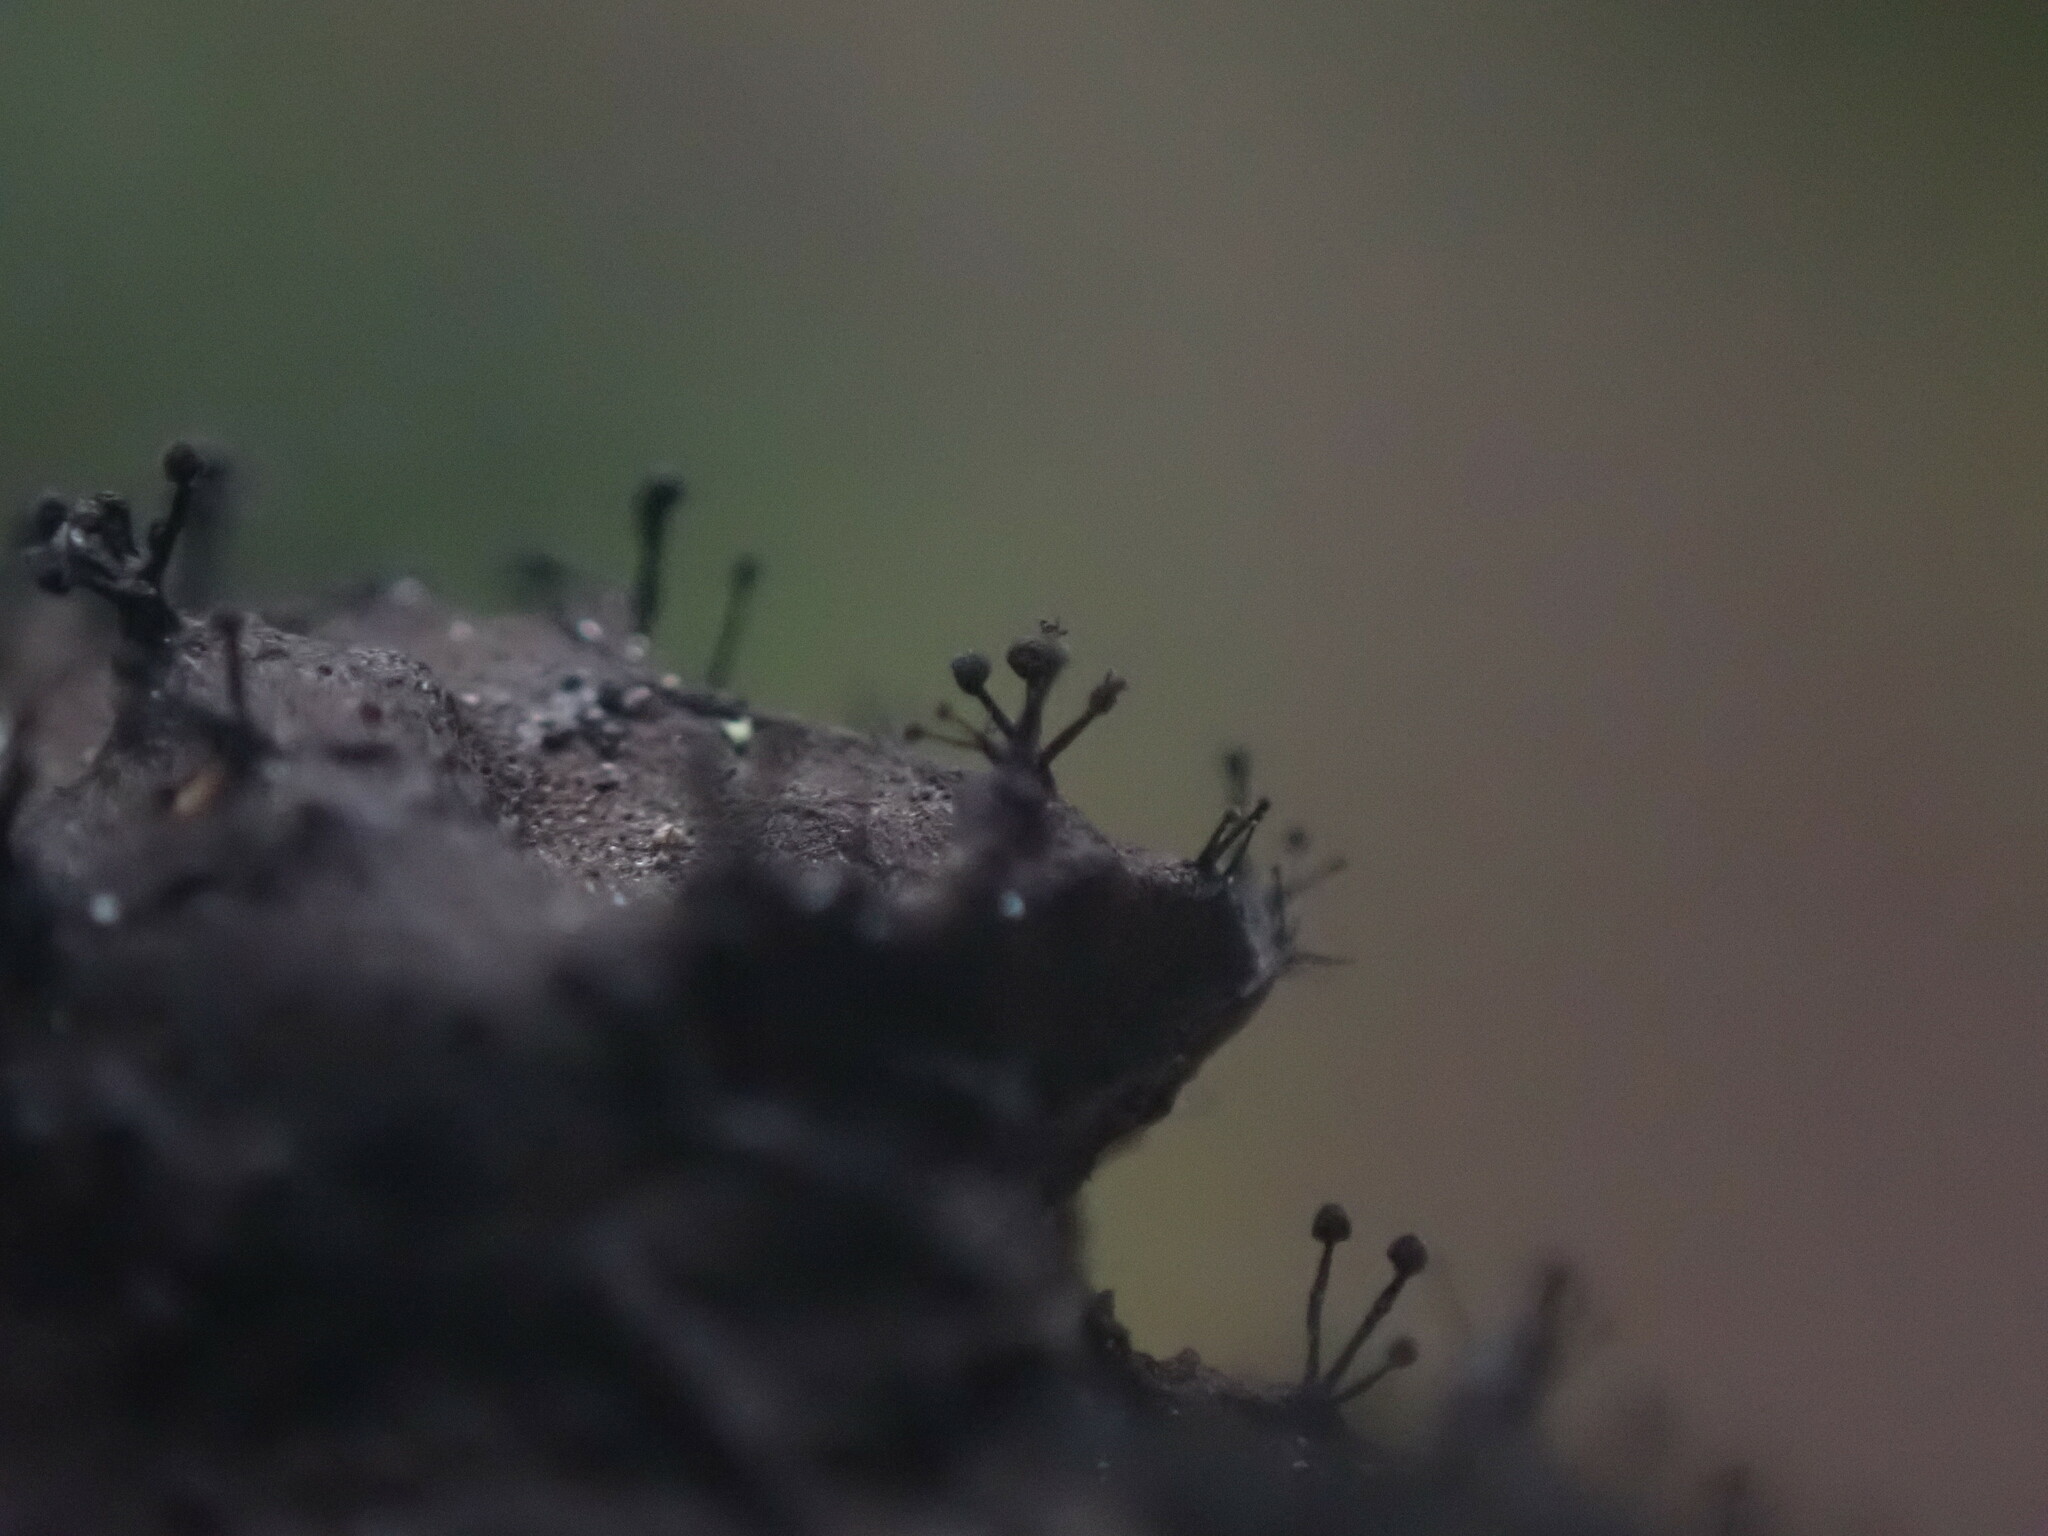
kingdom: Fungi
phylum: Ascomycota
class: Leotiomycetes
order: Helotiales
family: Amorphothecaceae
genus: Sorocybe
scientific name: Sorocybe resinae
